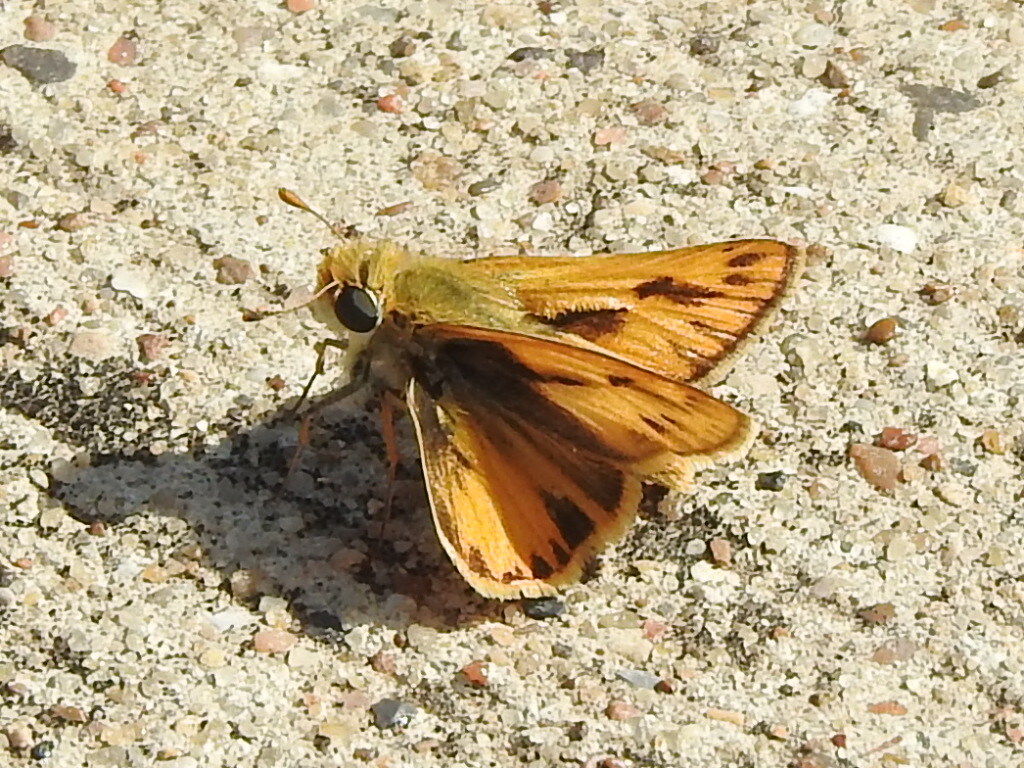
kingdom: Animalia
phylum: Arthropoda
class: Insecta
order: Lepidoptera
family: Hesperiidae
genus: Hylephila
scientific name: Hylephila phyleus
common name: Fiery skipper
